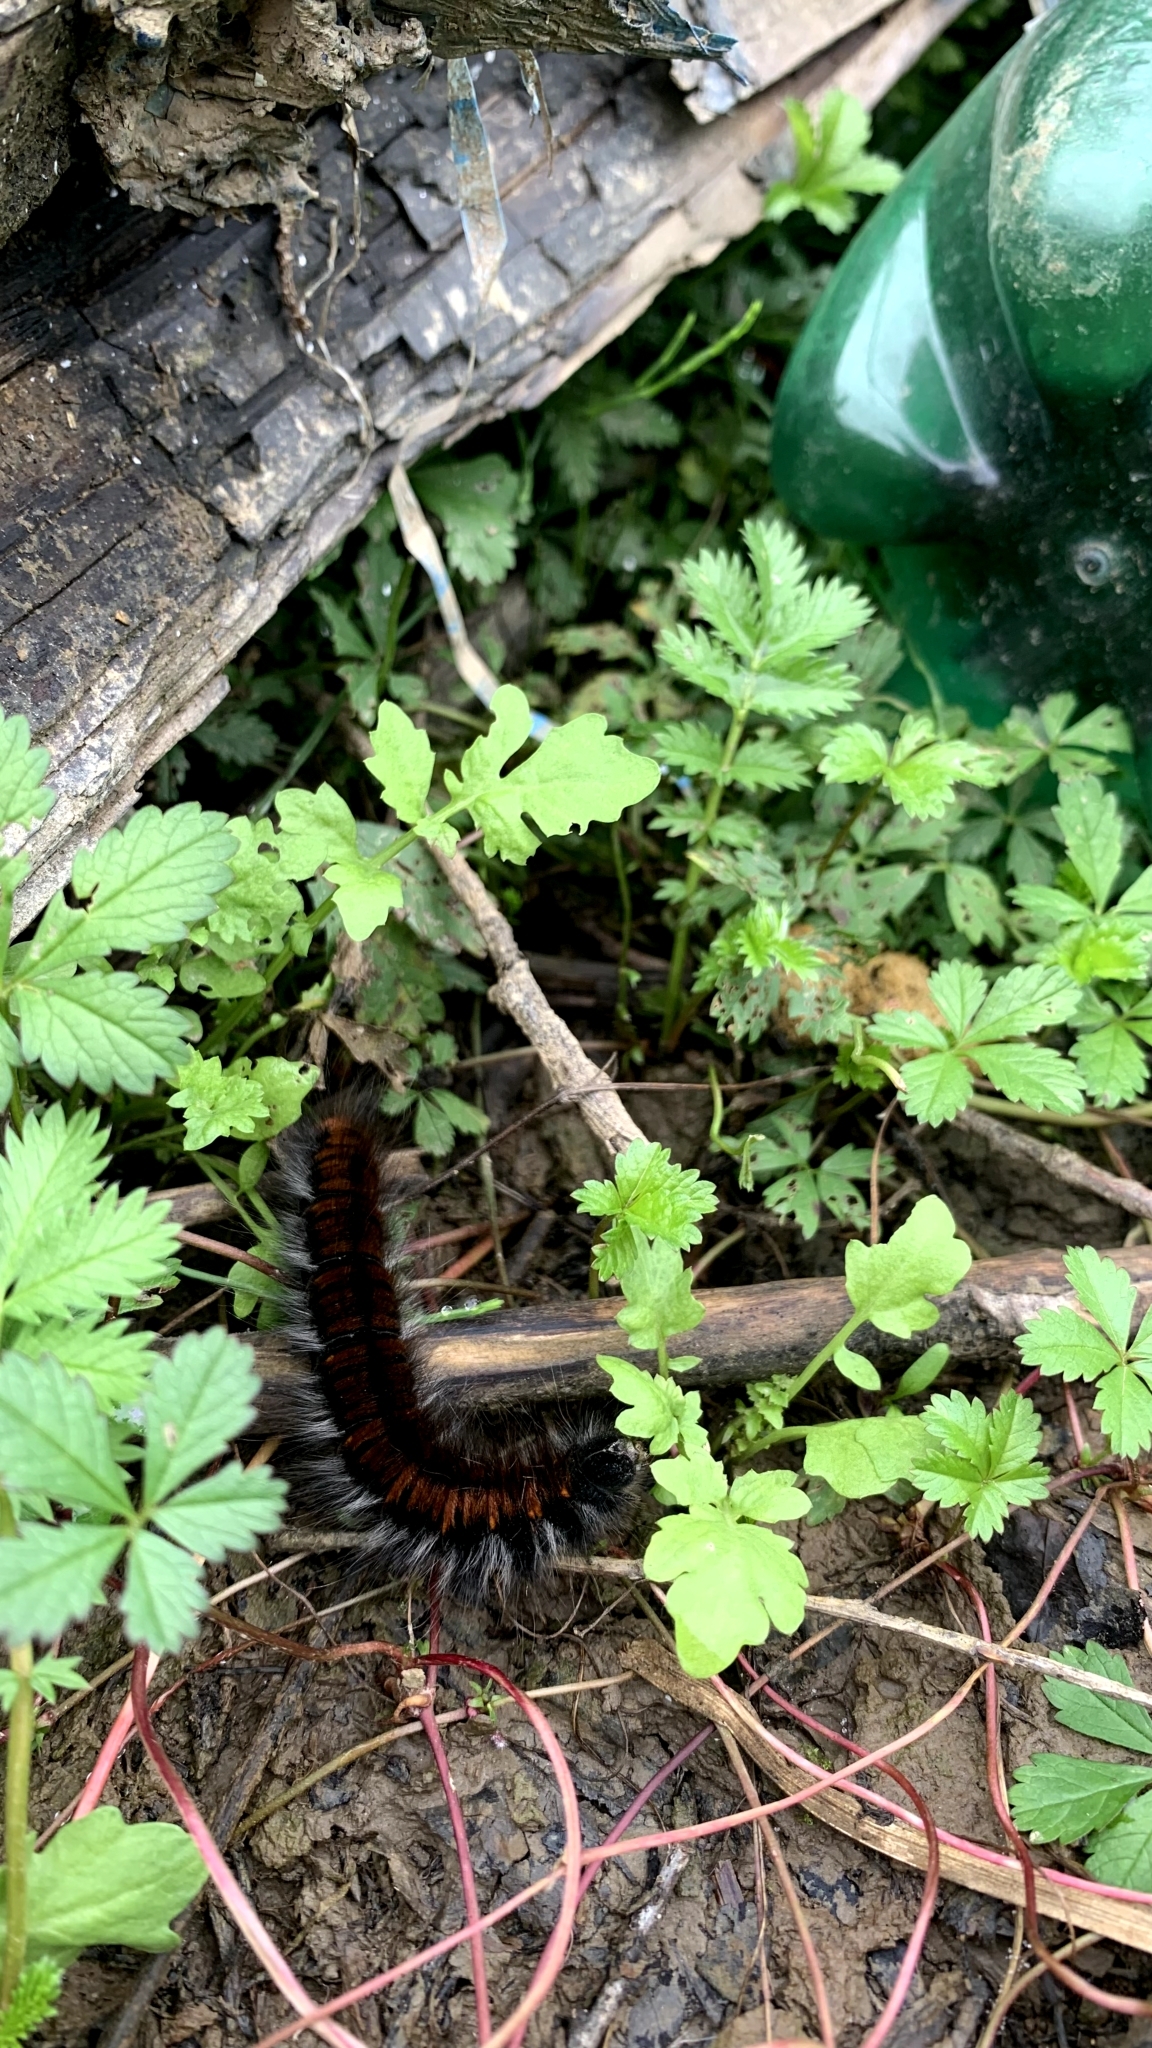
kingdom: Animalia
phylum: Arthropoda
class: Insecta
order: Lepidoptera
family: Lasiocampidae
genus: Macrothylacia
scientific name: Macrothylacia rubi
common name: Fox moth
